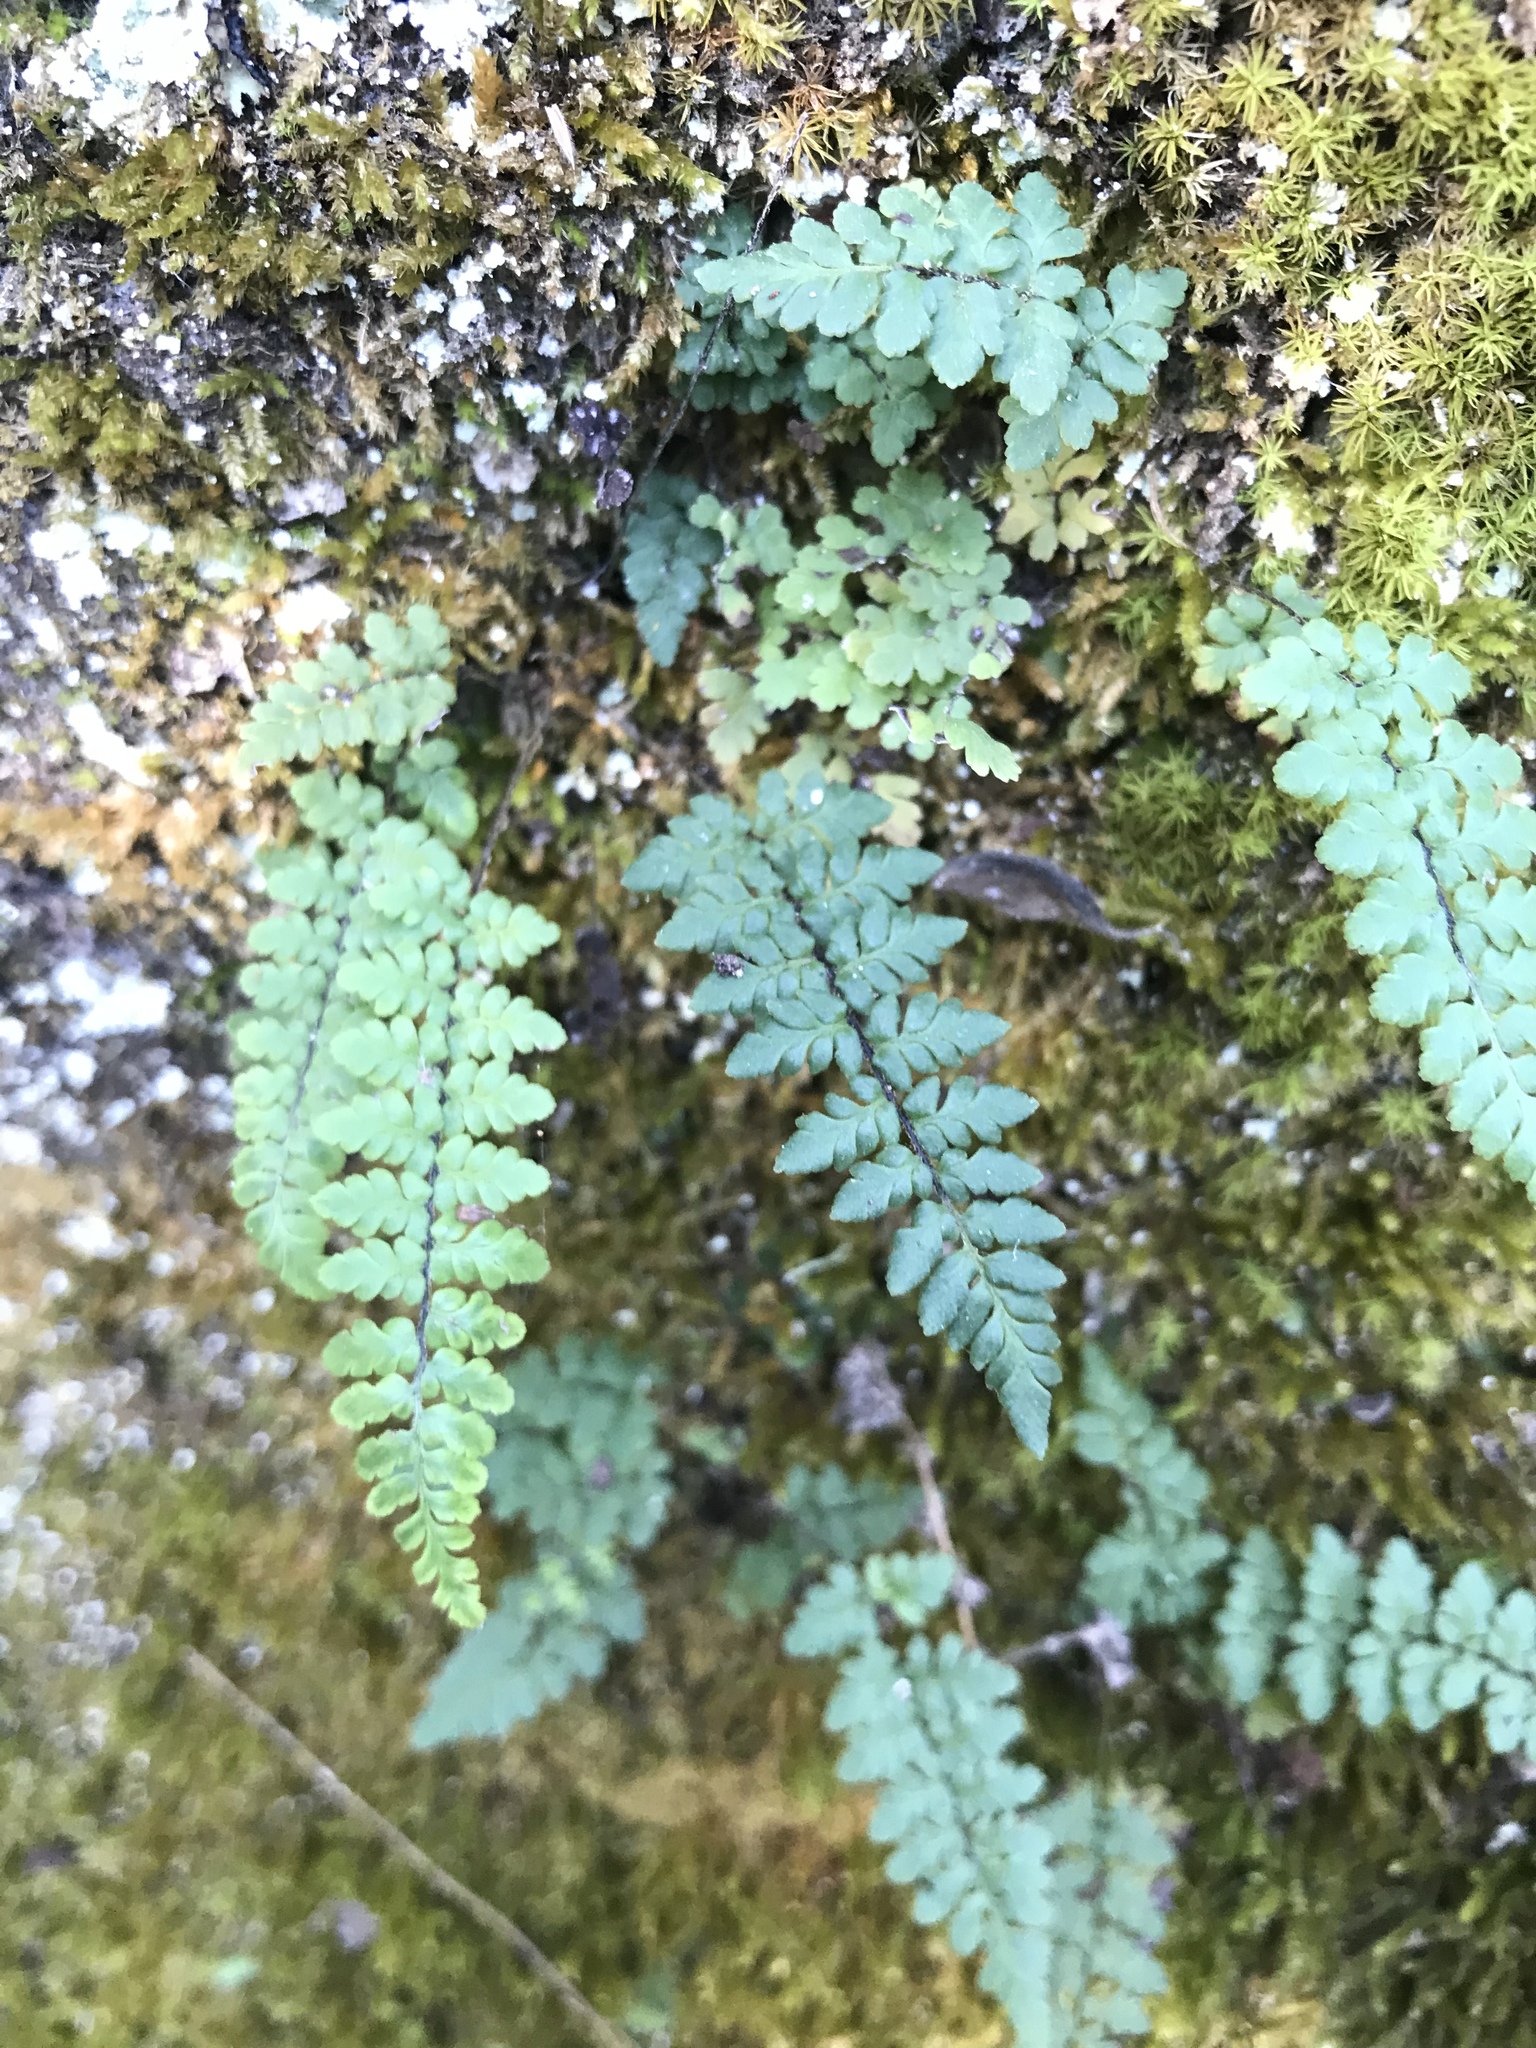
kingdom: Plantae
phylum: Tracheophyta
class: Polypodiopsida
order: Polypodiales
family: Pteridaceae
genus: Myriopteris
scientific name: Myriopteris alabamensis
